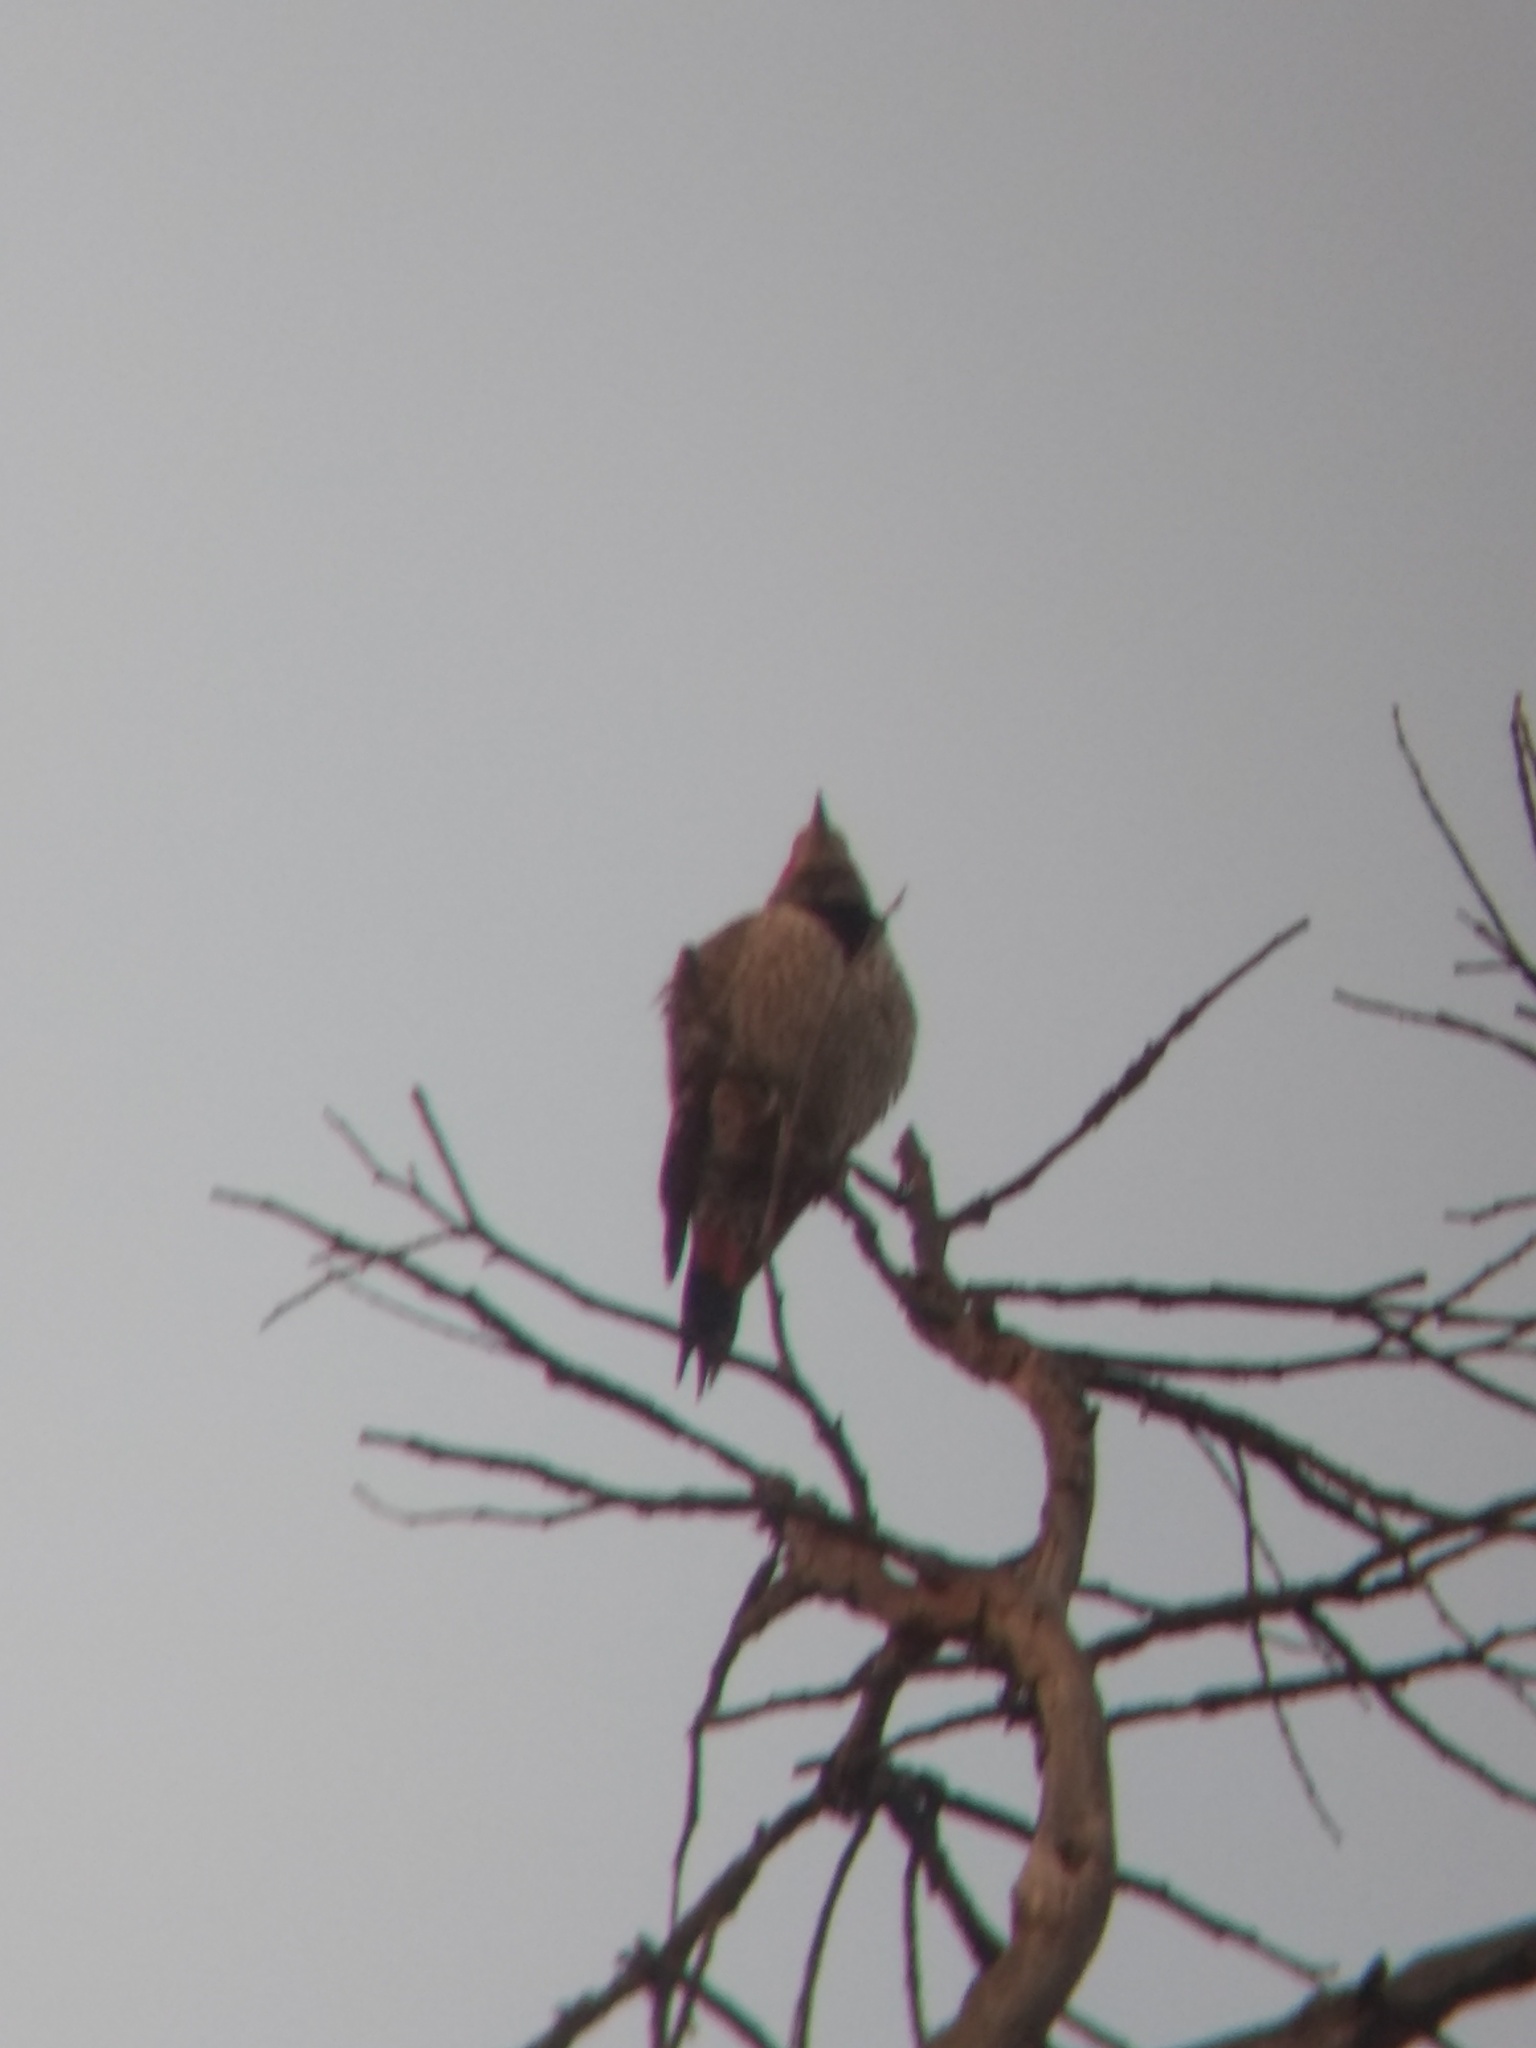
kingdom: Animalia
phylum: Chordata
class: Aves
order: Piciformes
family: Picidae
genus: Colaptes
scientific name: Colaptes auratus
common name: Northern flicker
